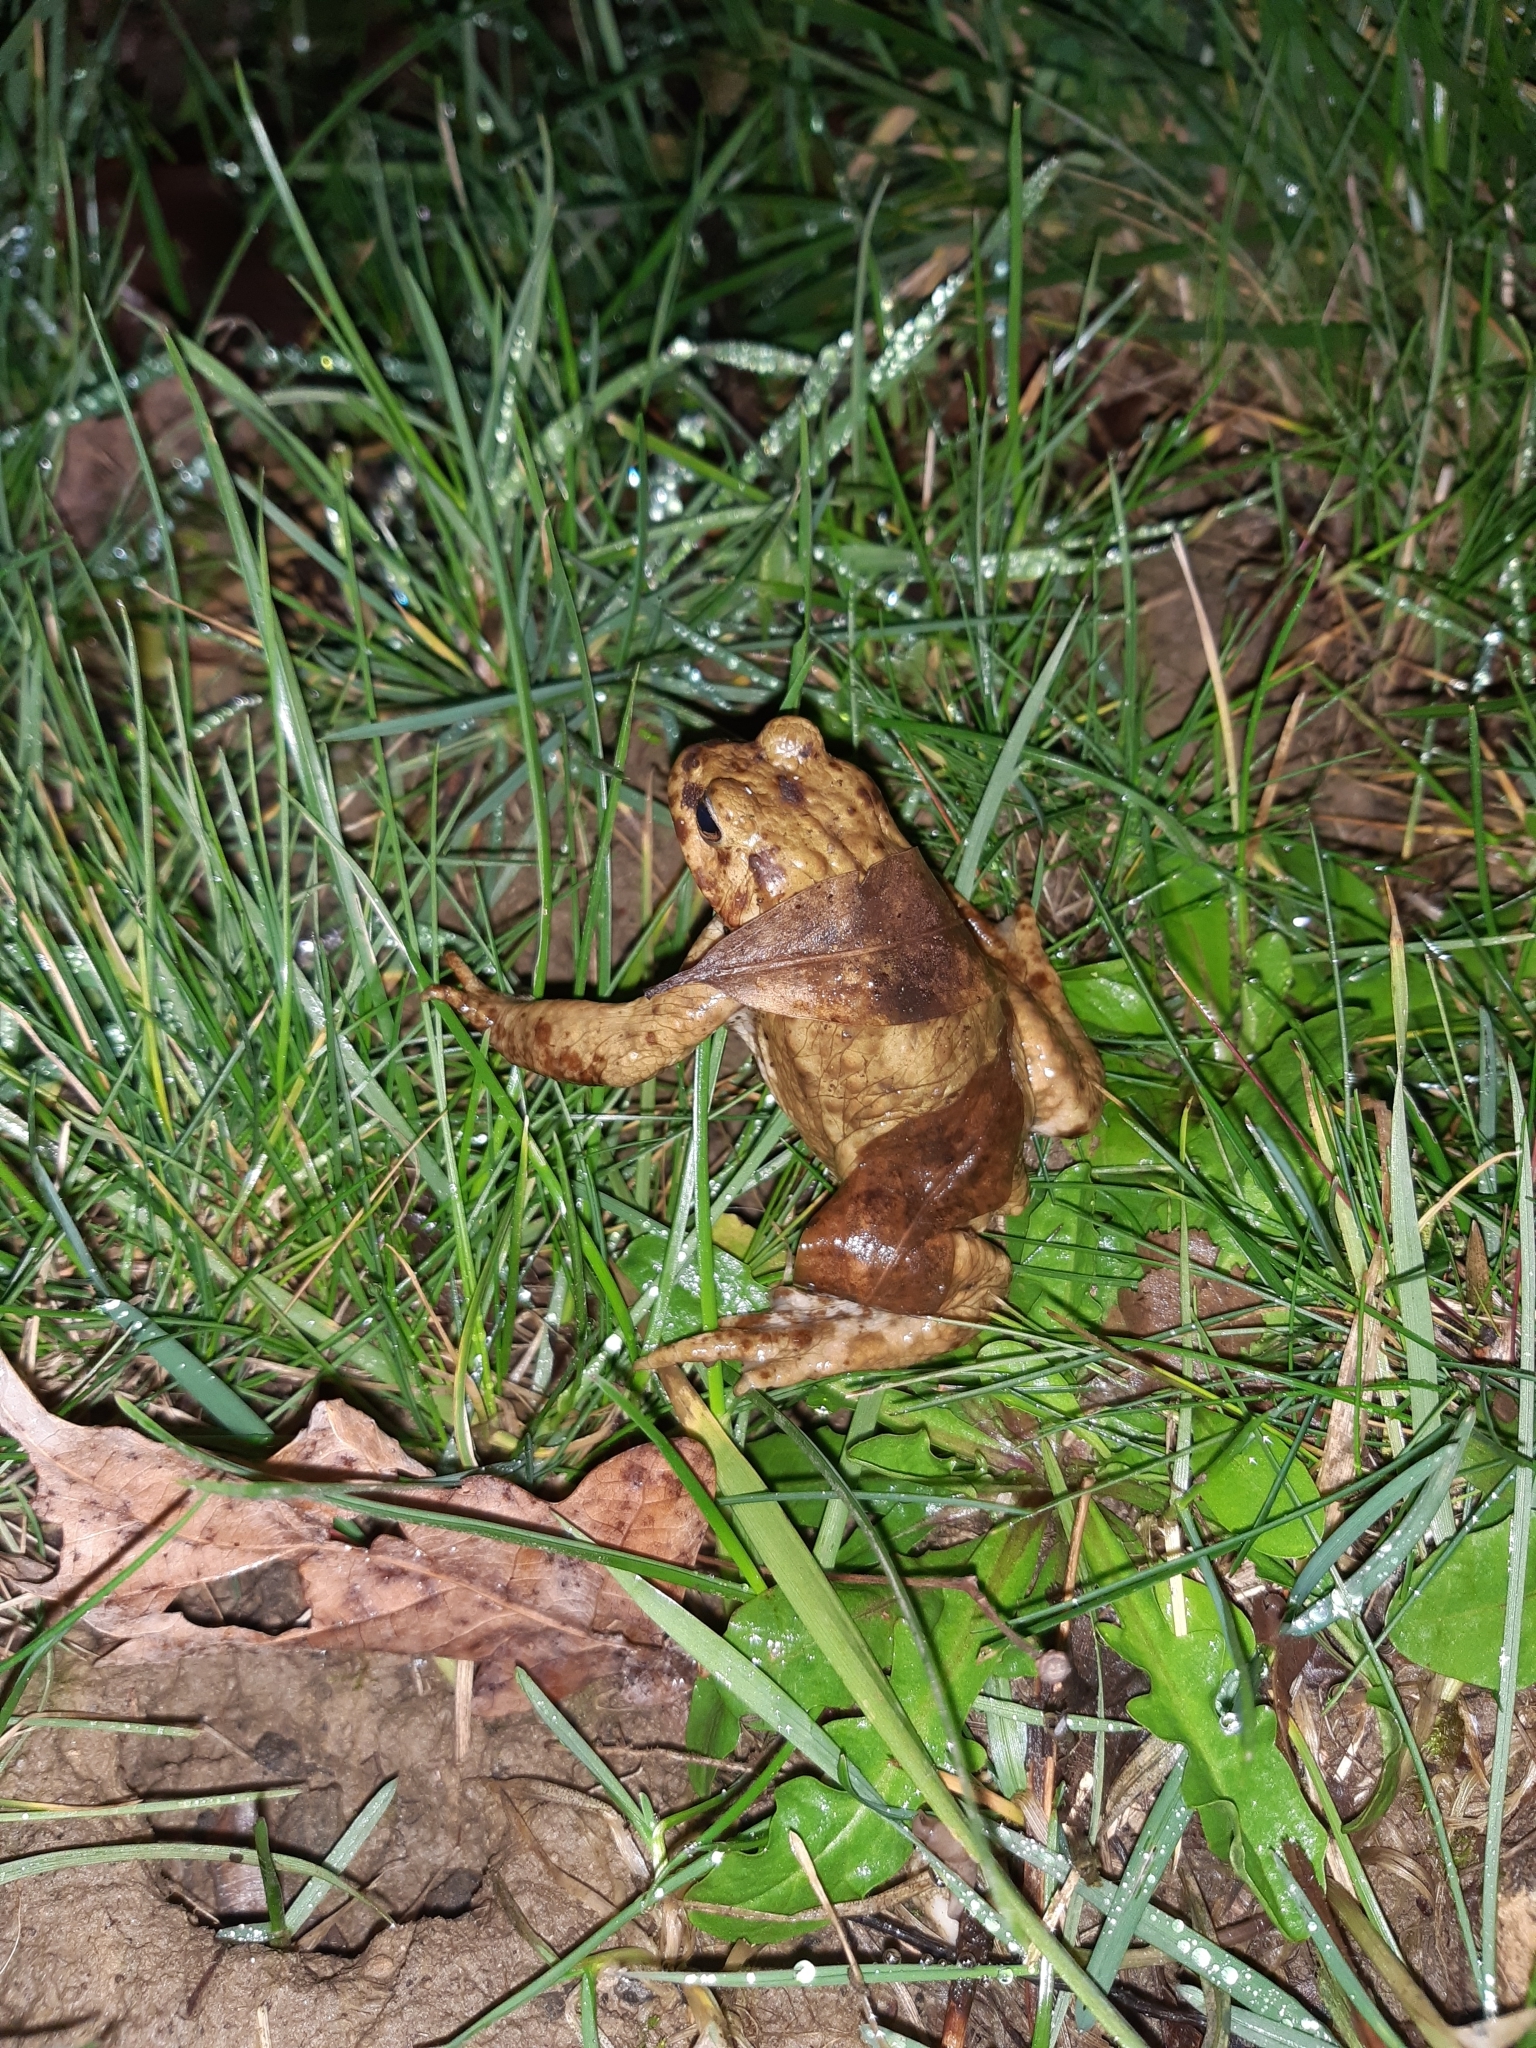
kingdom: Animalia
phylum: Chordata
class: Amphibia
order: Anura
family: Bufonidae
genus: Bufo
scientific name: Bufo bufo
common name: Common toad
